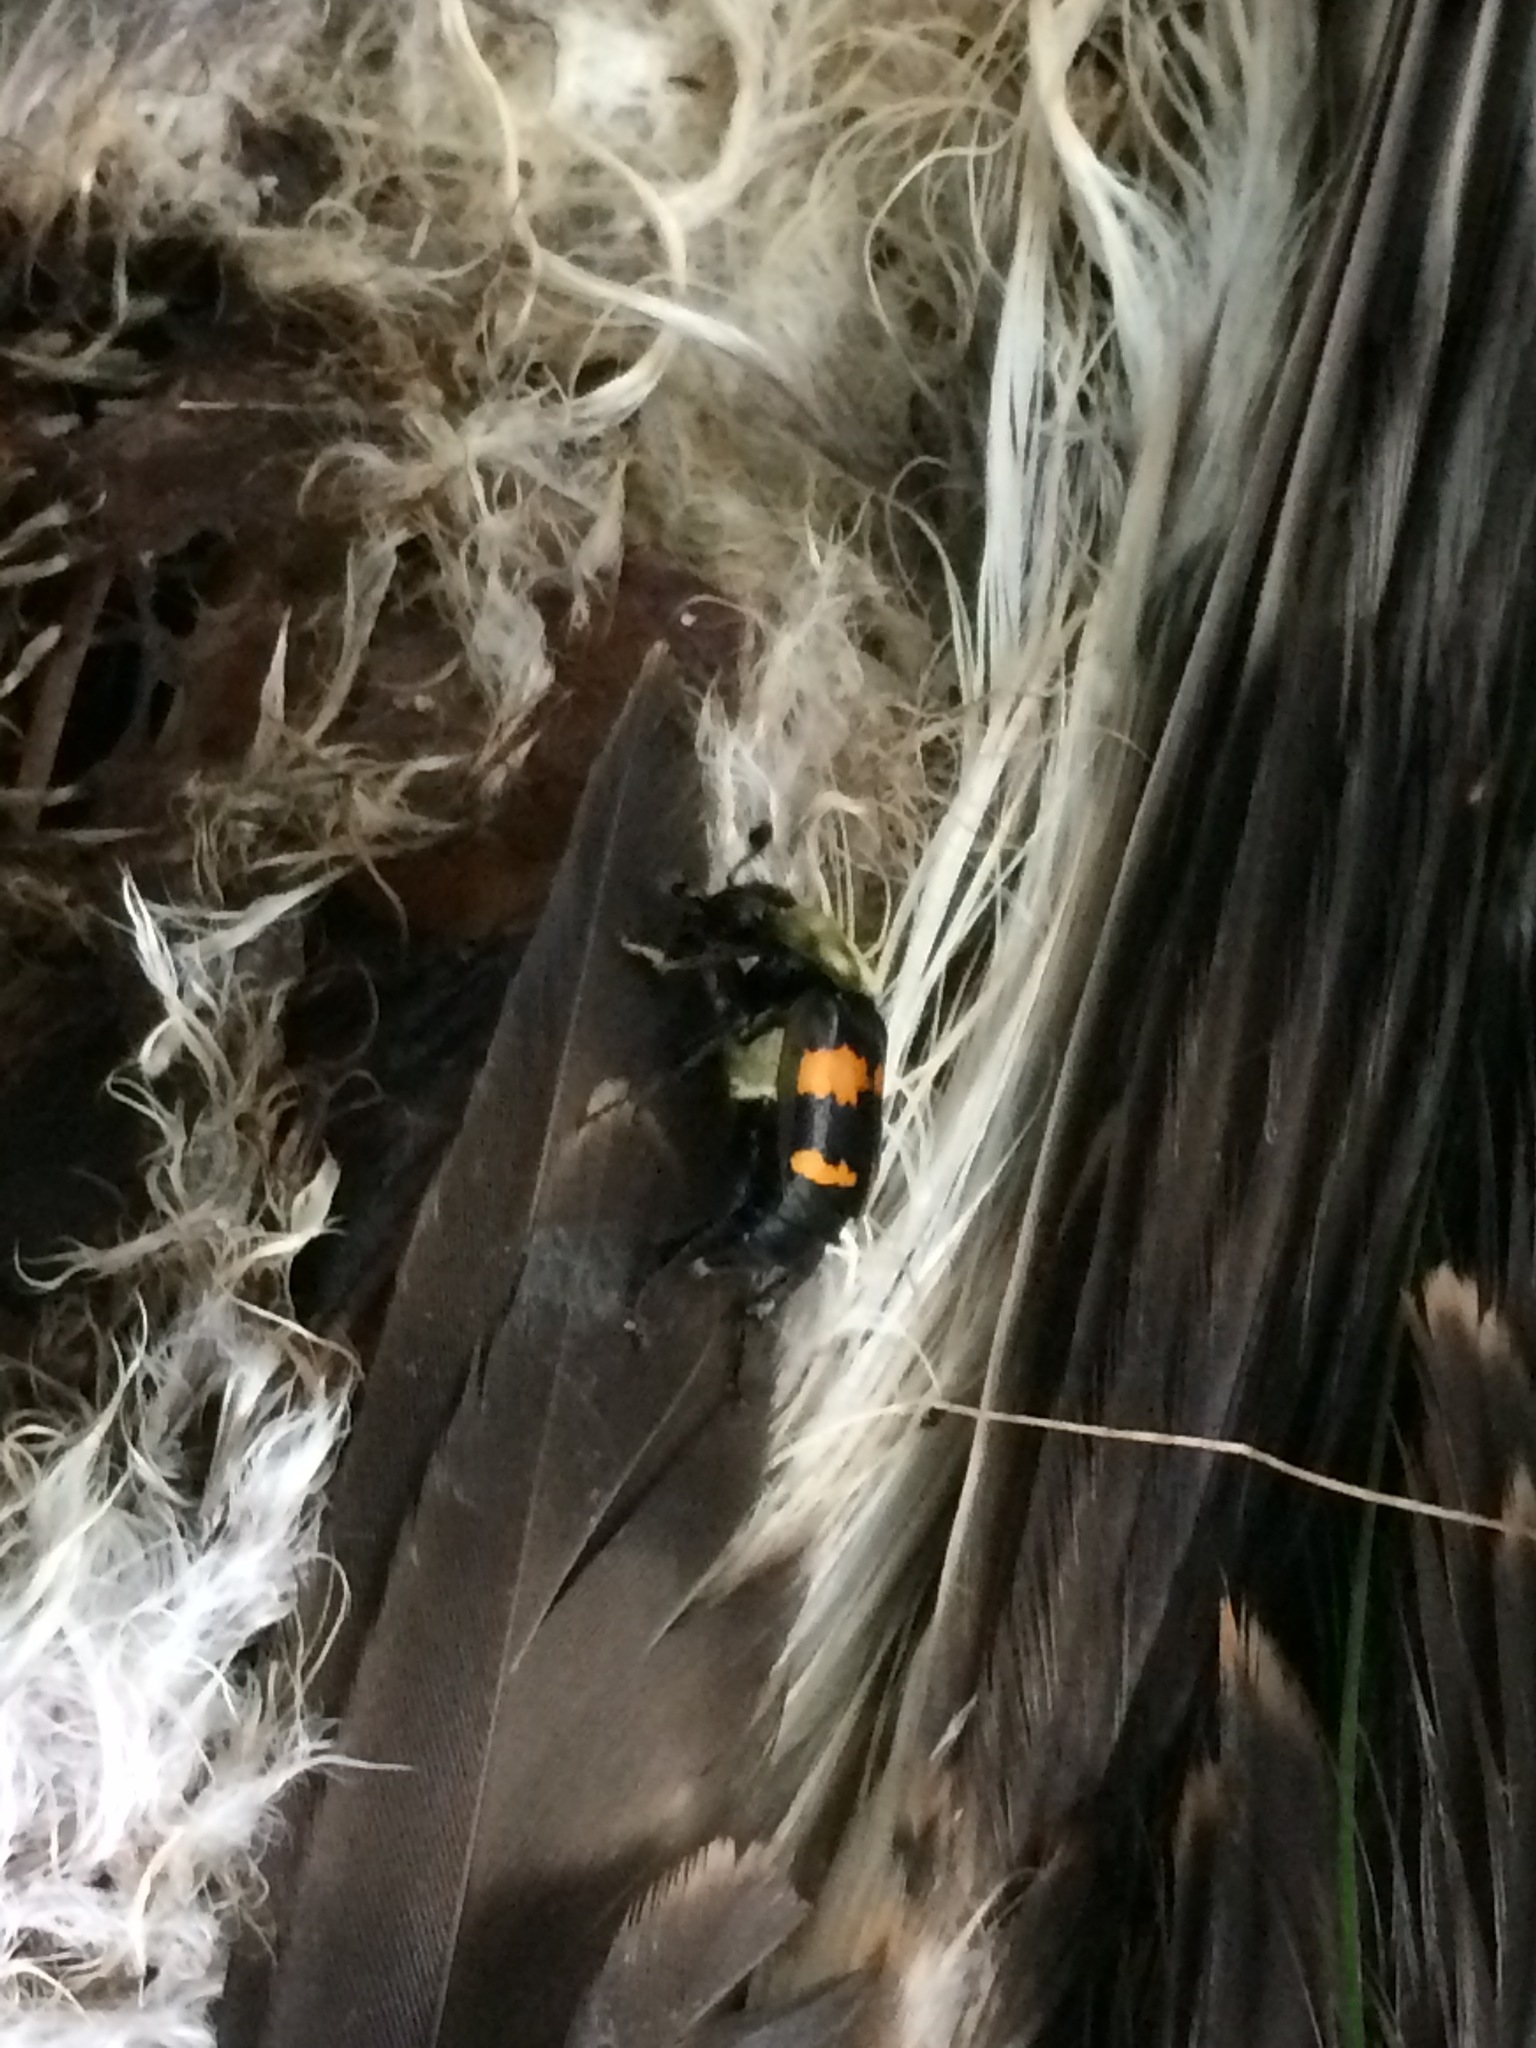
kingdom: Animalia
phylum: Arthropoda
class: Insecta
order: Coleoptera
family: Staphylinidae
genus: Nicrophorus
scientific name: Nicrophorus tomentosus
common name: Tomentose burying beetle
